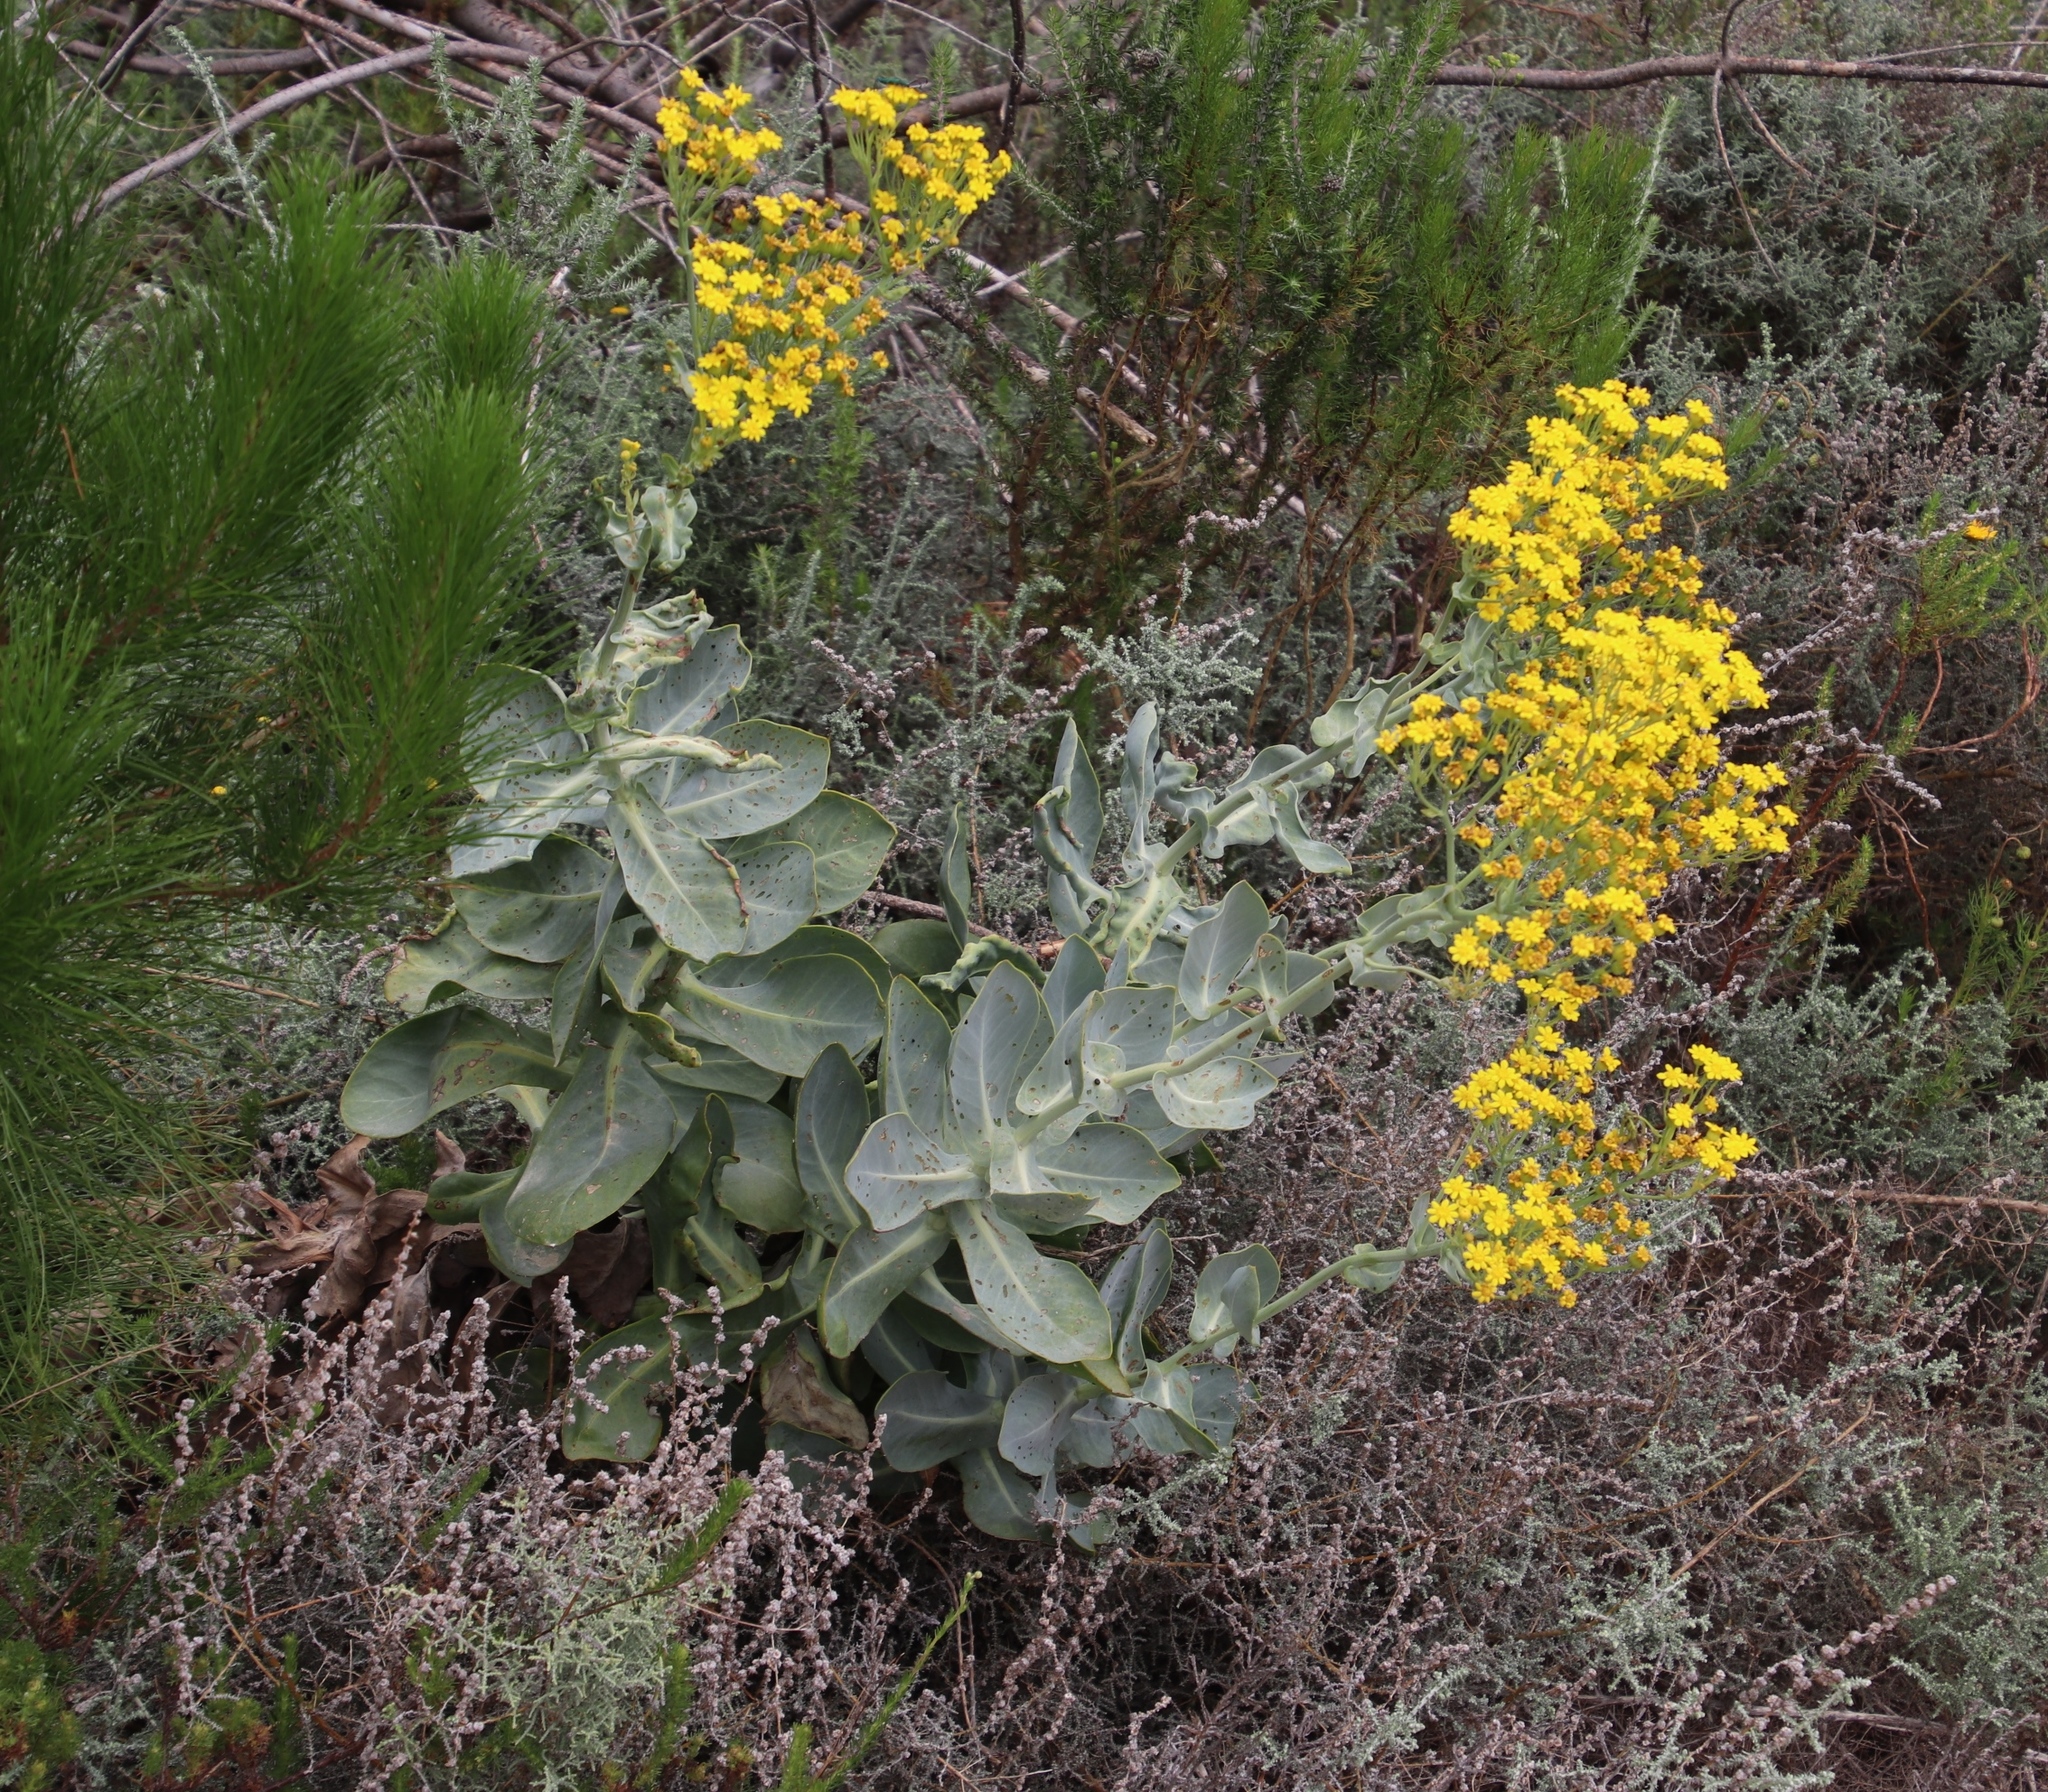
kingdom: Plantae
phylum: Tracheophyta
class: Magnoliopsida
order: Asterales
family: Asteraceae
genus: Othonna
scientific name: Othonna parviflora
